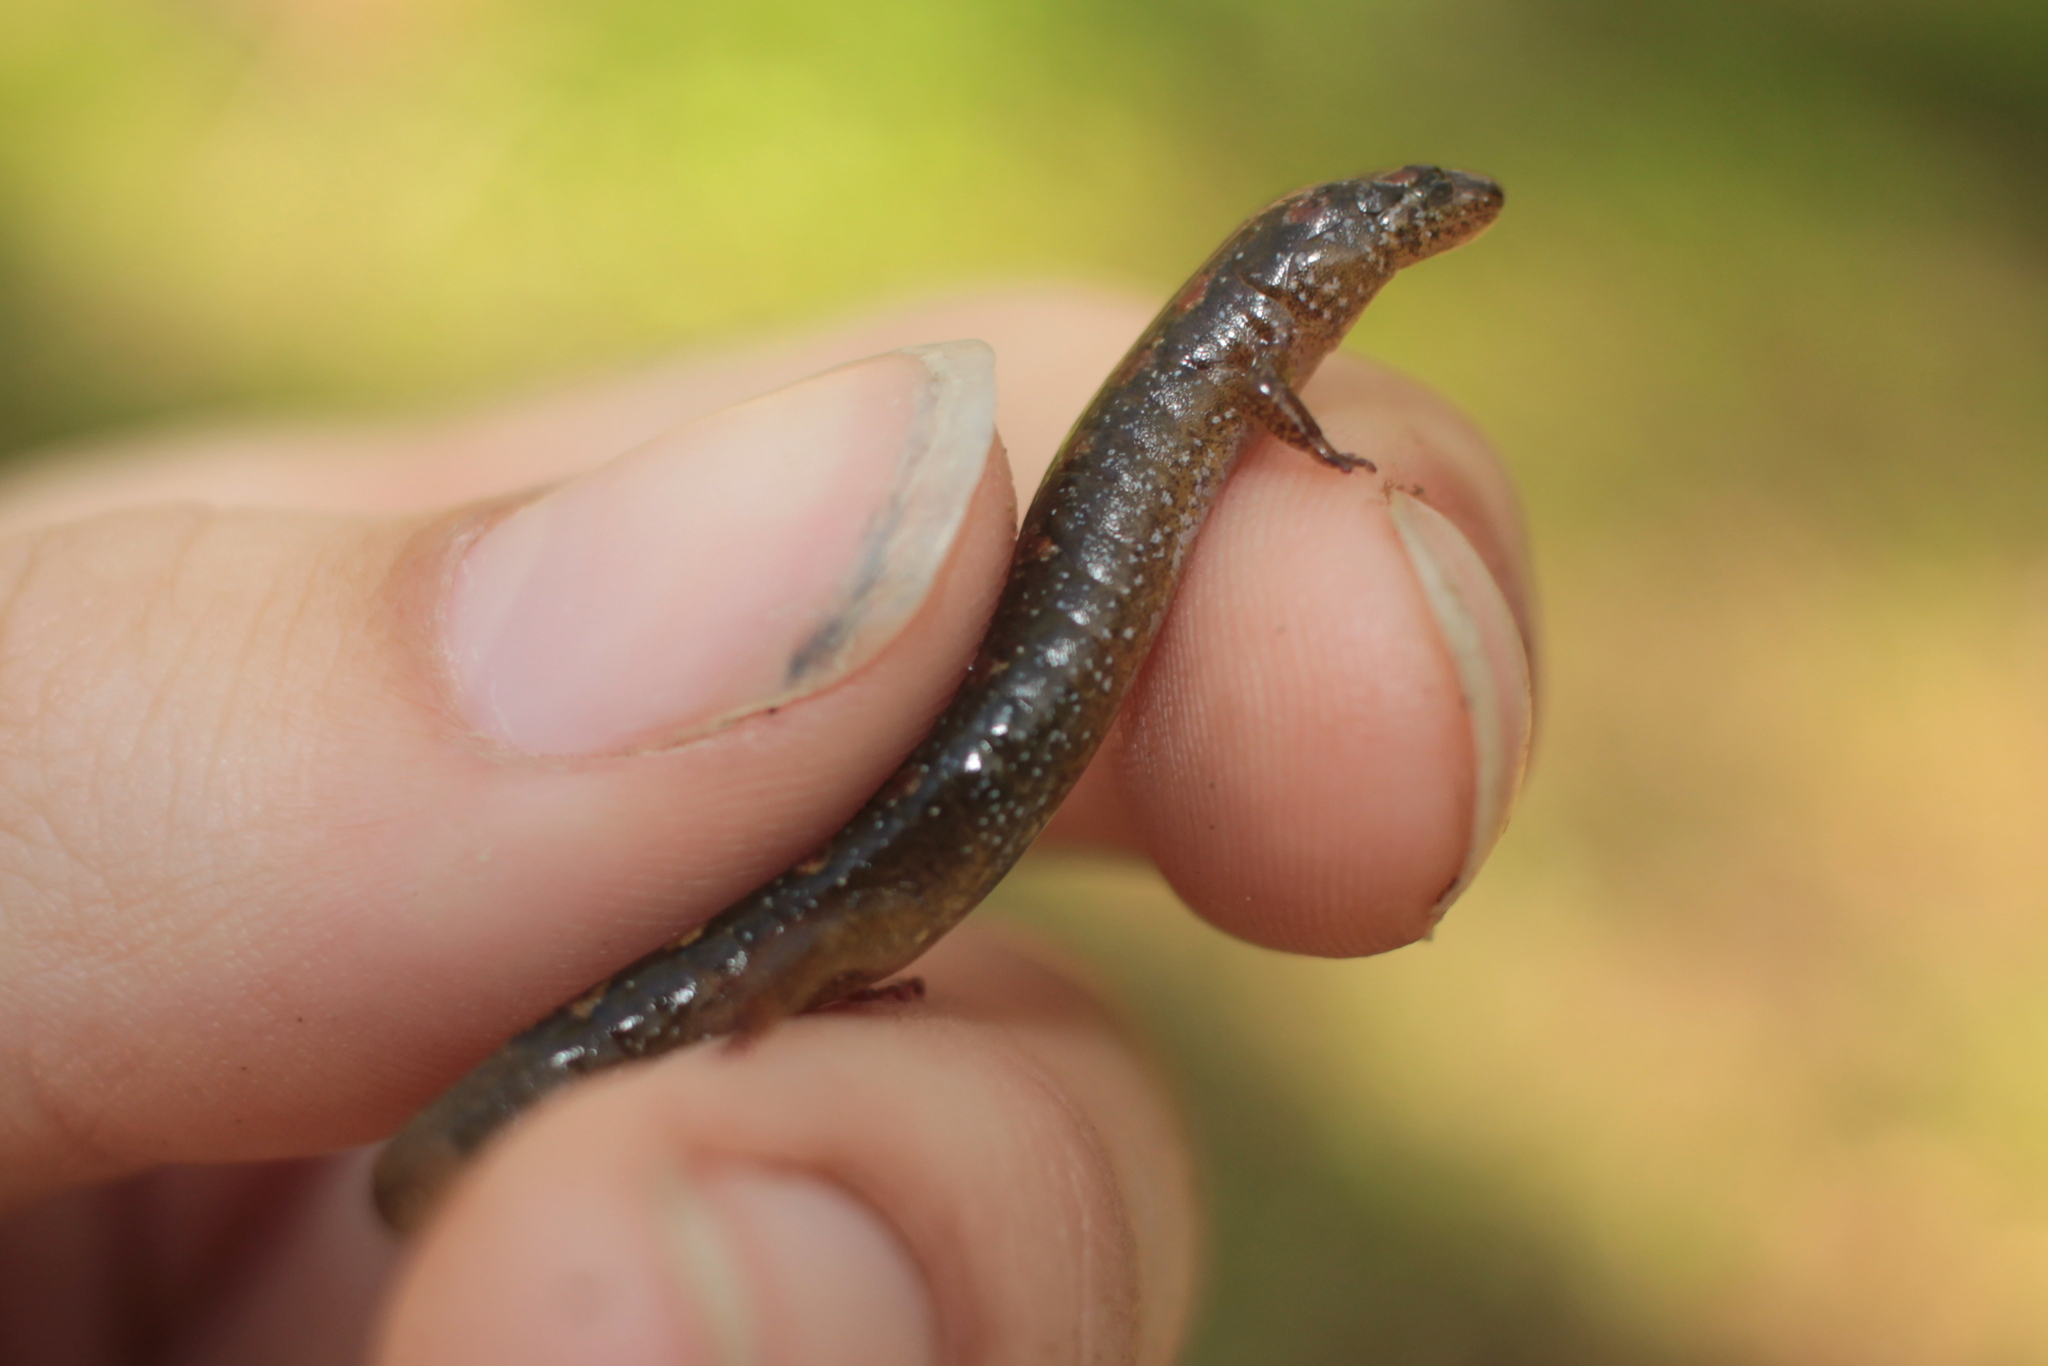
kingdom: Animalia
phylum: Chordata
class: Amphibia
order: Caudata
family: Plethodontidae
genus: Desmognathus
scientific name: Desmognathus santeetlah
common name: Santeetlah dusky salamander
